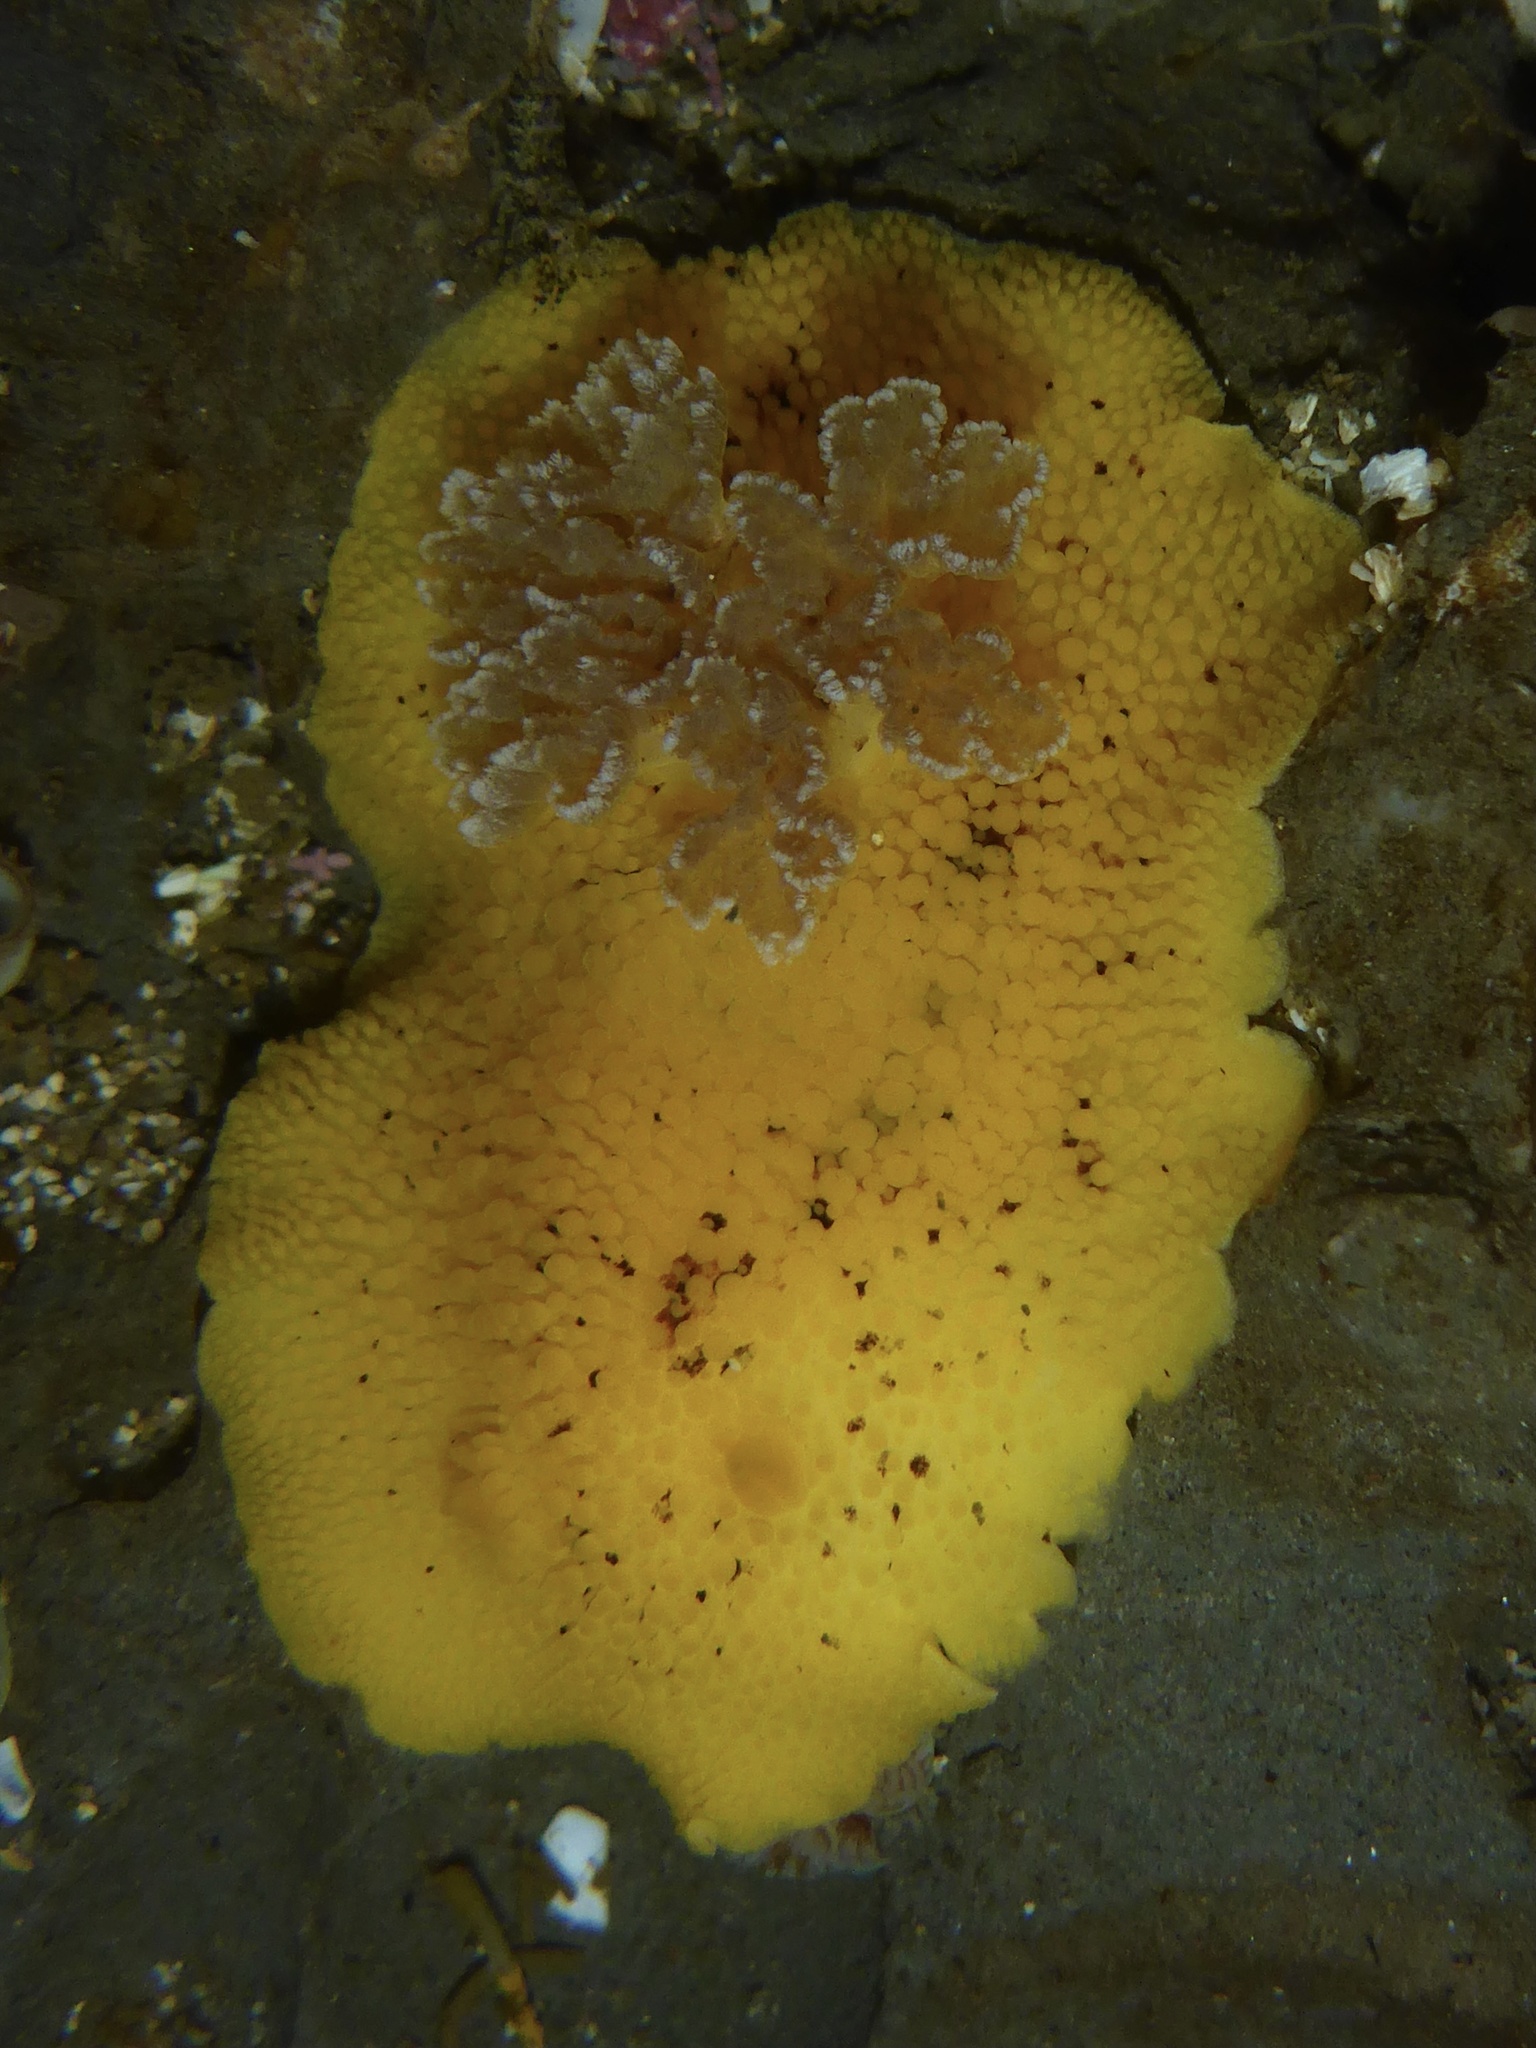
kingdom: Animalia
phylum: Mollusca
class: Gastropoda
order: Nudibranchia
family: Discodorididae
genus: Peltodoris
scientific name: Peltodoris nobilis
